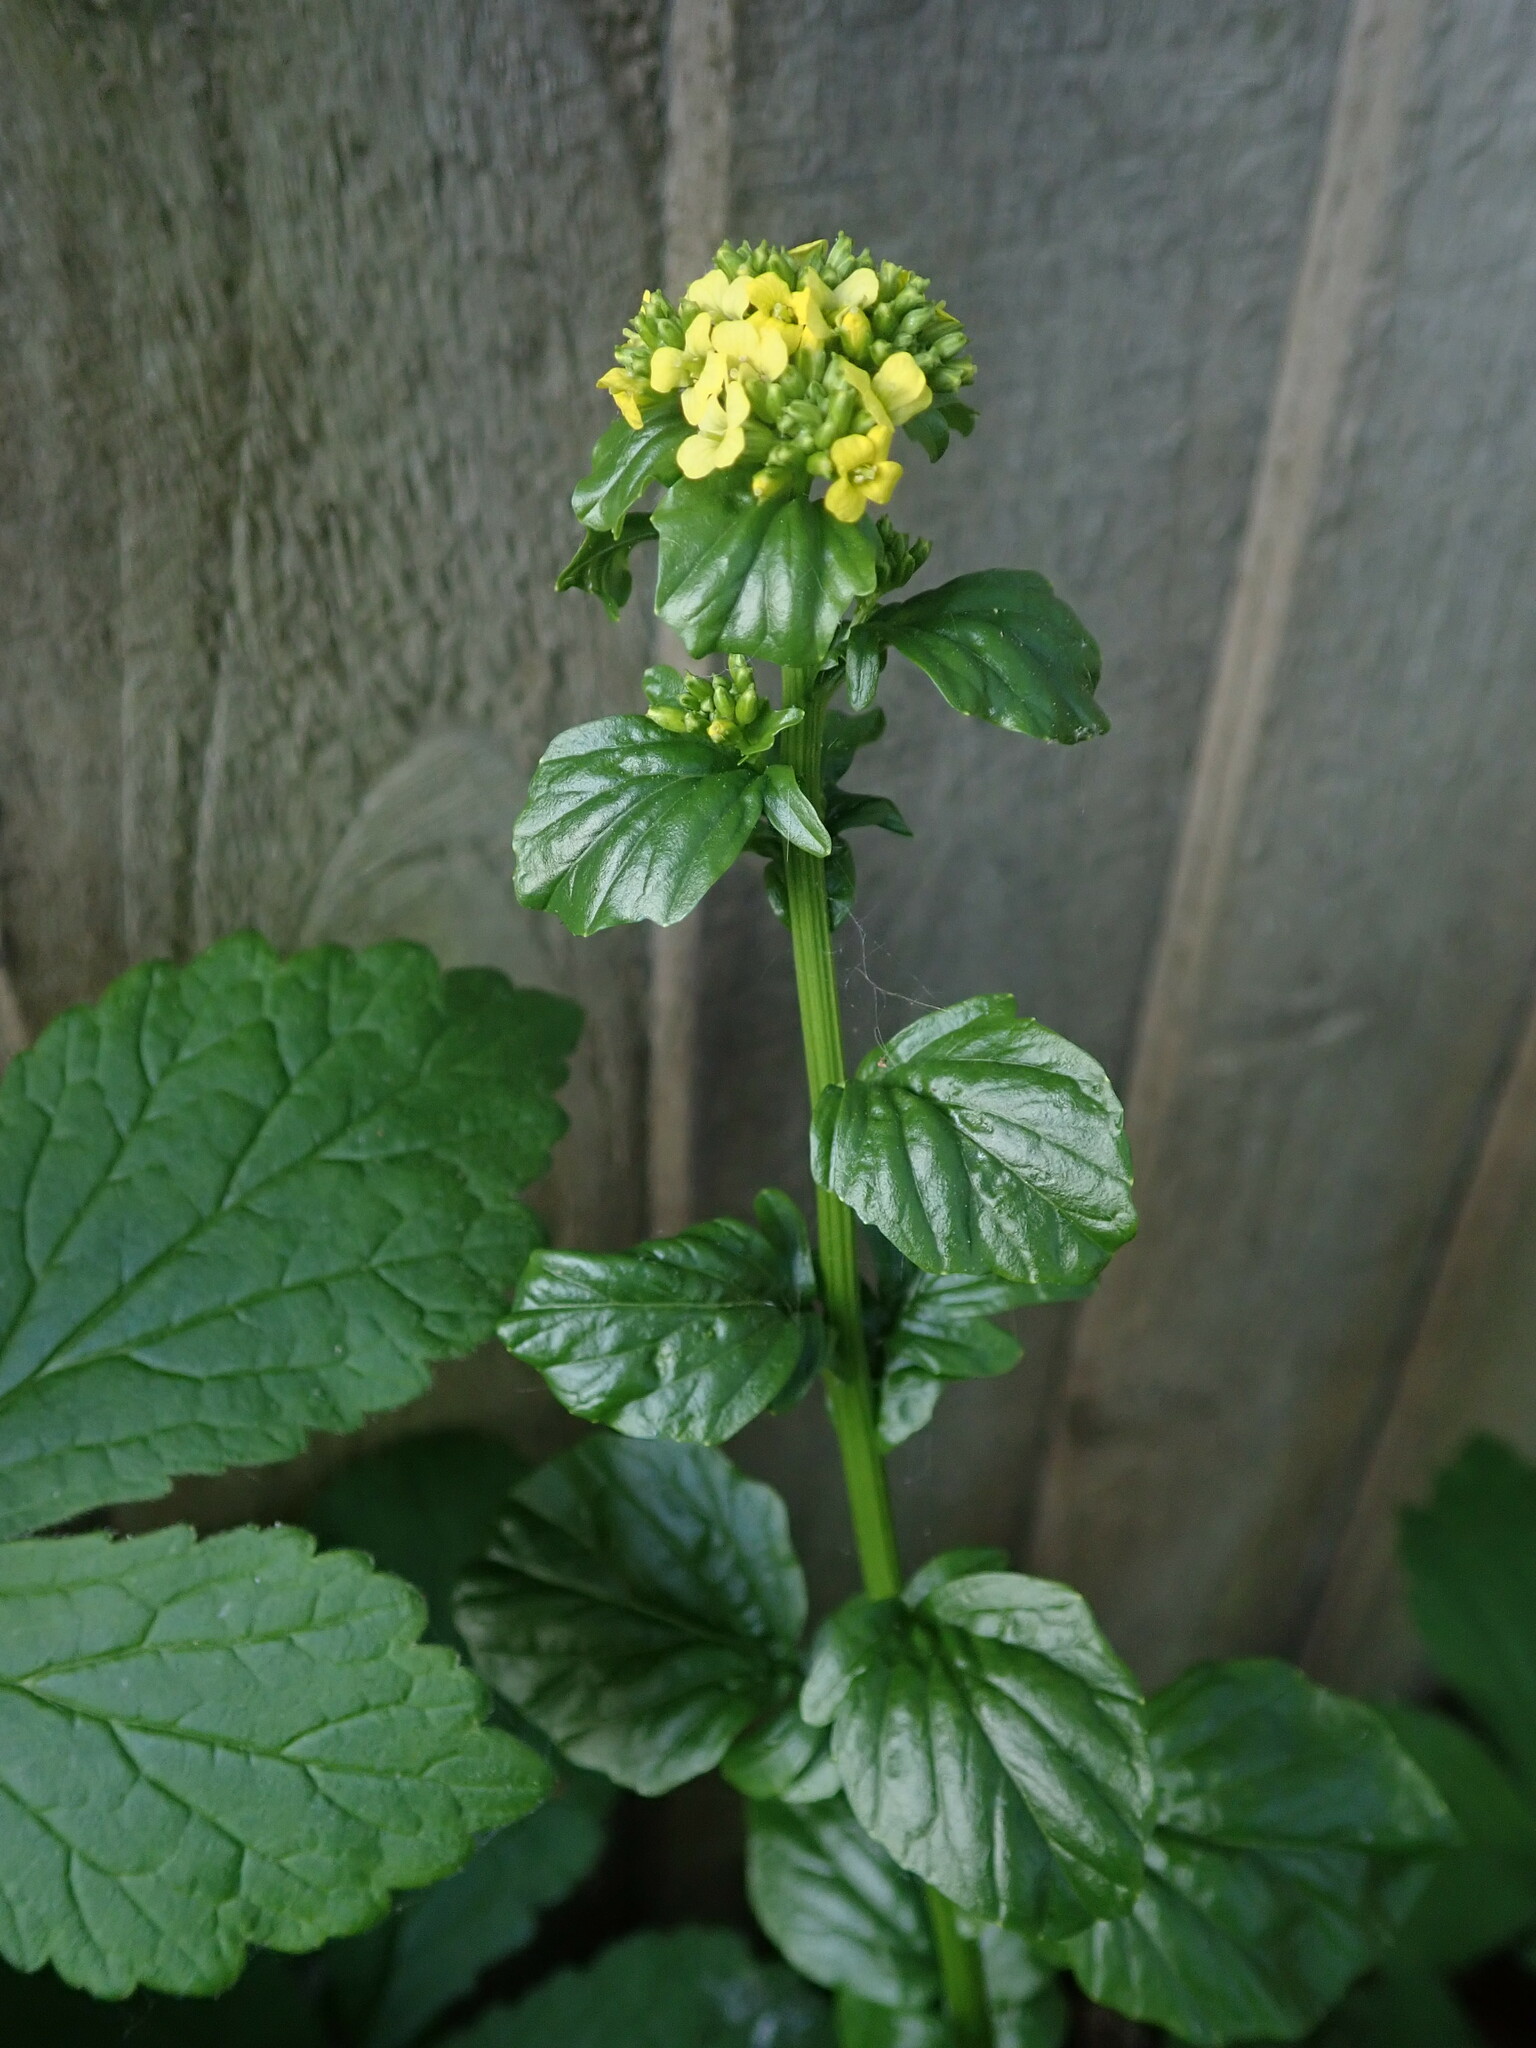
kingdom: Plantae
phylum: Tracheophyta
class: Magnoliopsida
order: Brassicales
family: Brassicaceae
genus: Barbarea
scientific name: Barbarea vulgaris
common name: Cressy-greens
